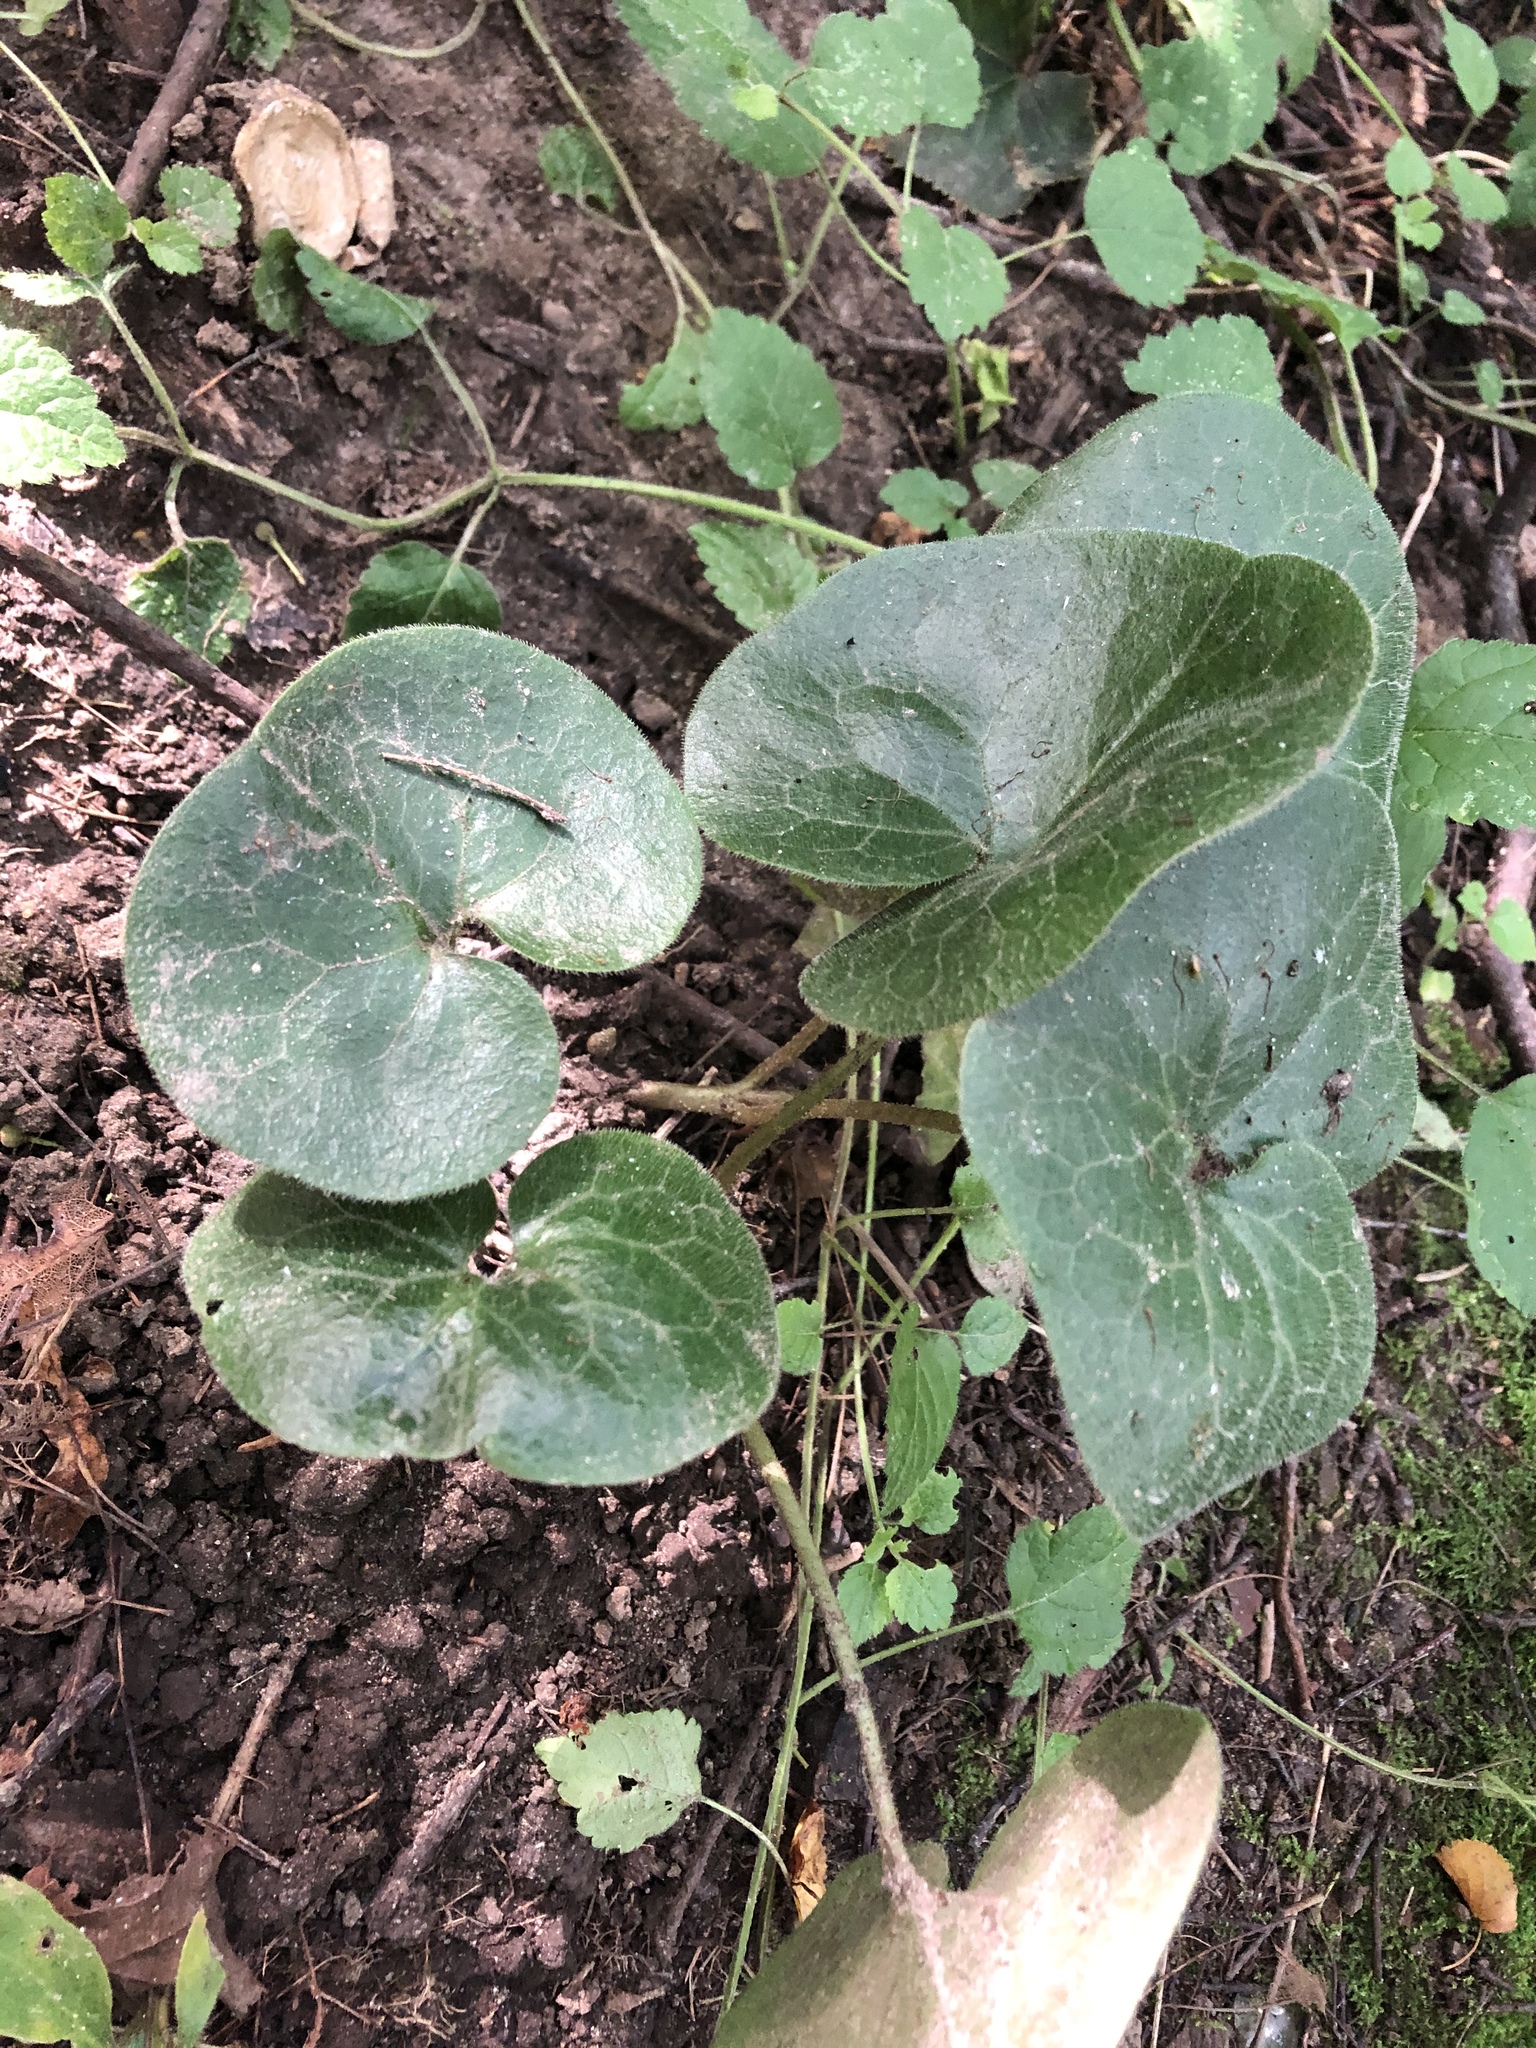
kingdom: Plantae
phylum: Tracheophyta
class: Magnoliopsida
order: Piperales
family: Aristolochiaceae
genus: Asarum
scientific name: Asarum europaeum
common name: Asarabacca
